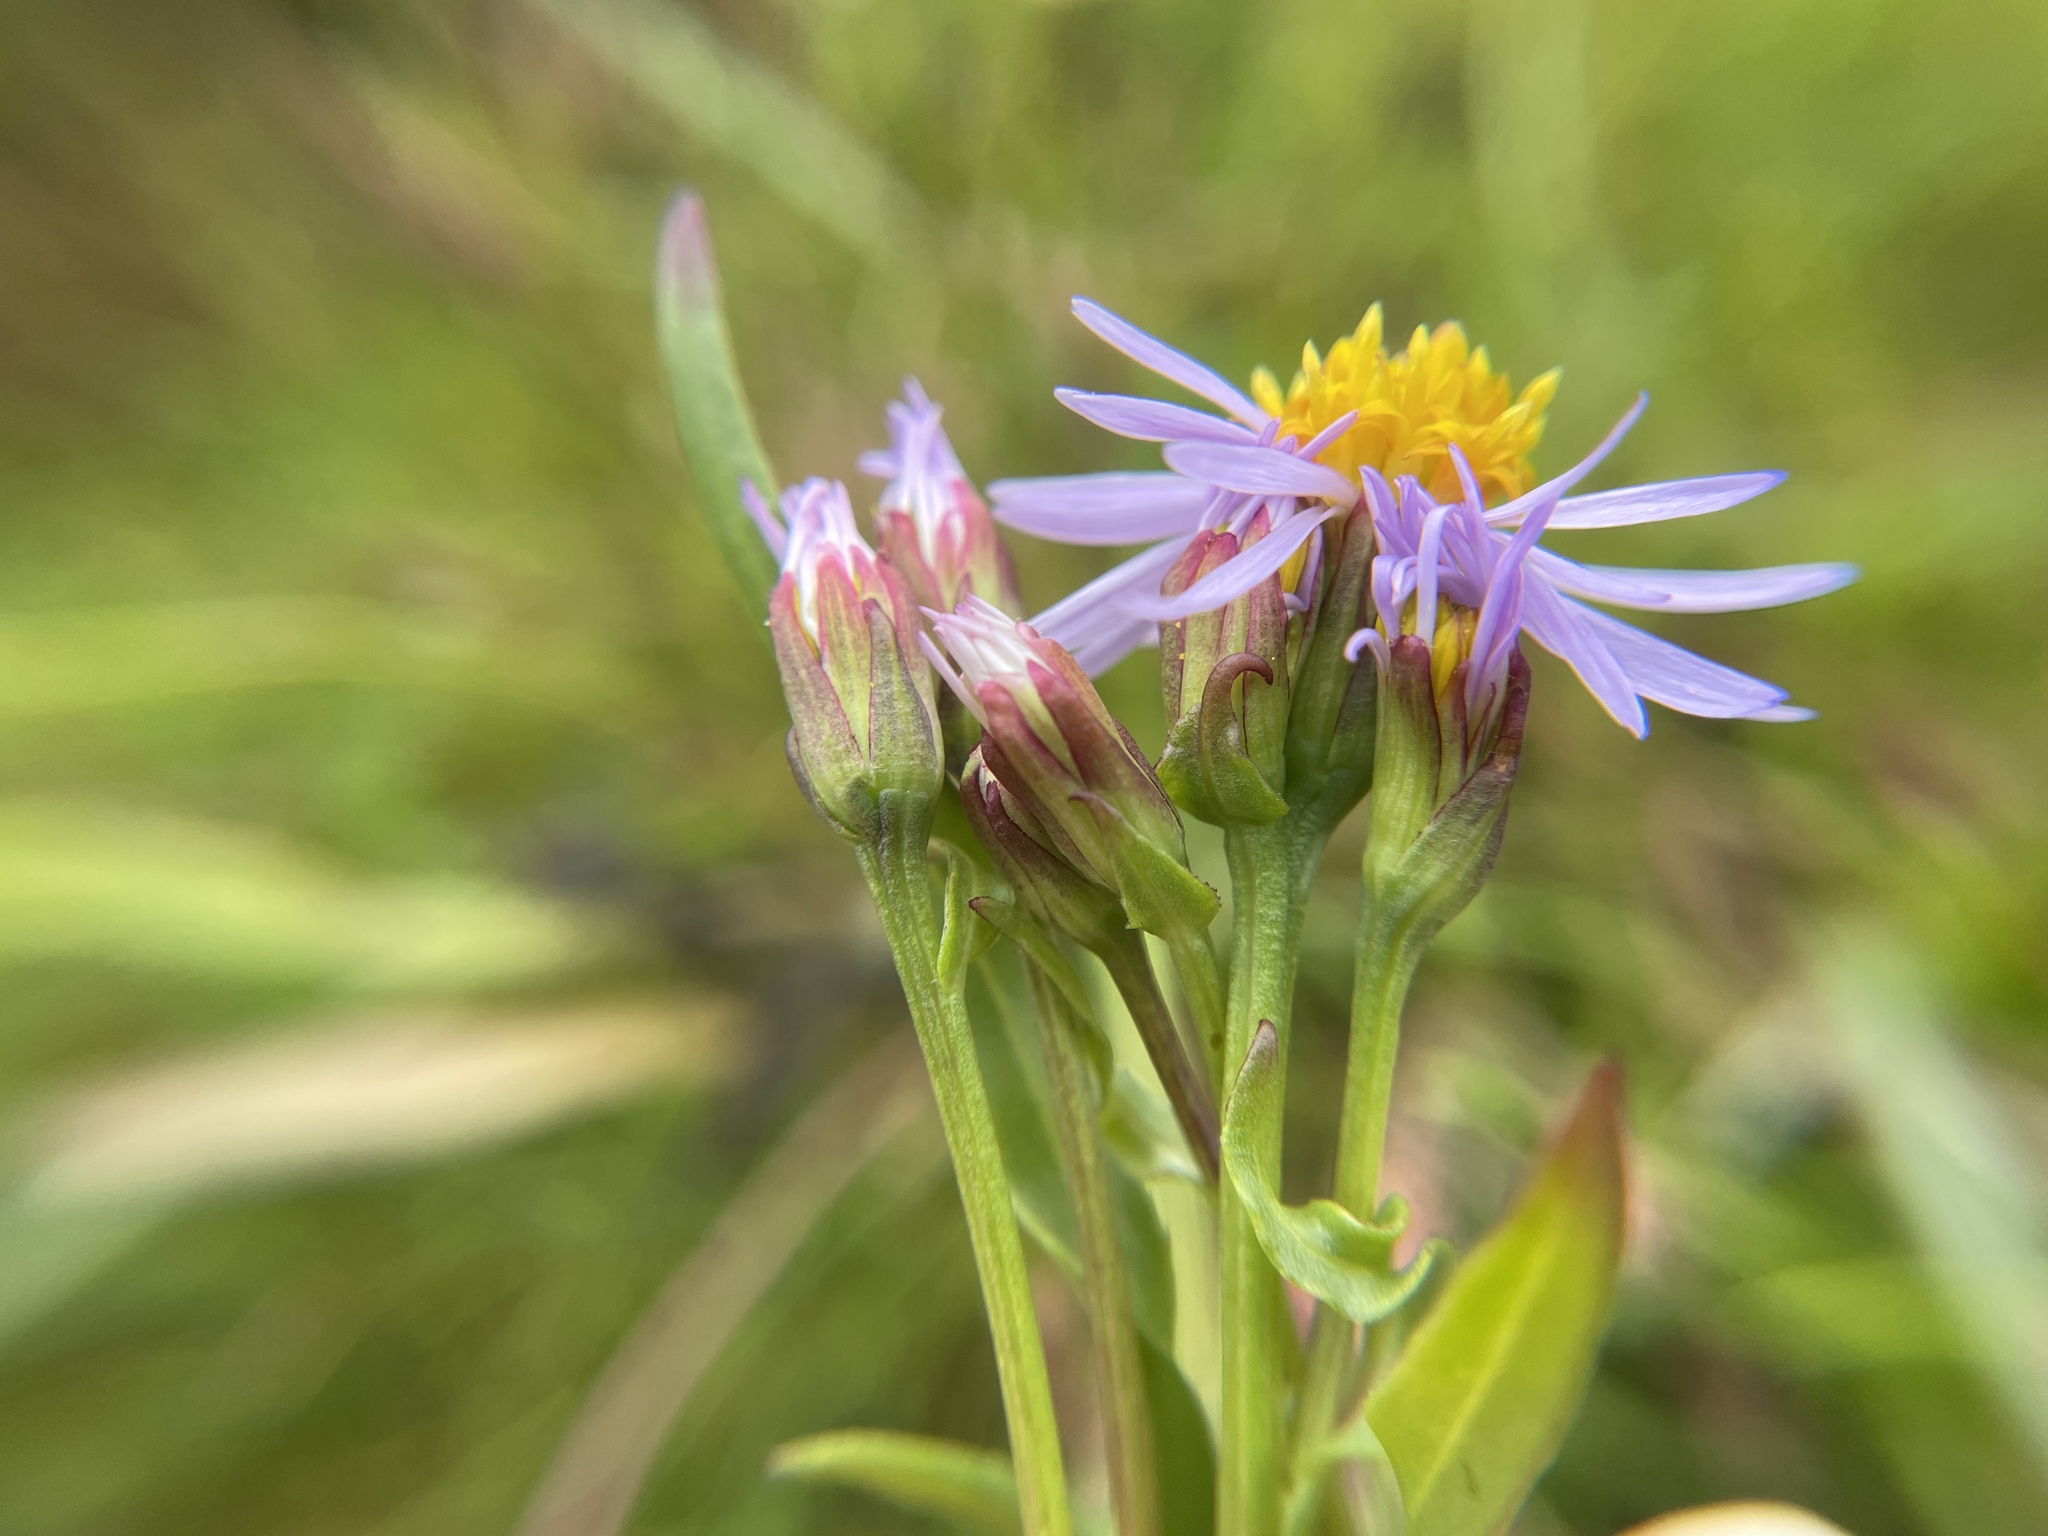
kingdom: Plantae
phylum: Tracheophyta
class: Magnoliopsida
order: Asterales
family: Asteraceae
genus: Tripolium
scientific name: Tripolium pannonicum
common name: Sea aster
